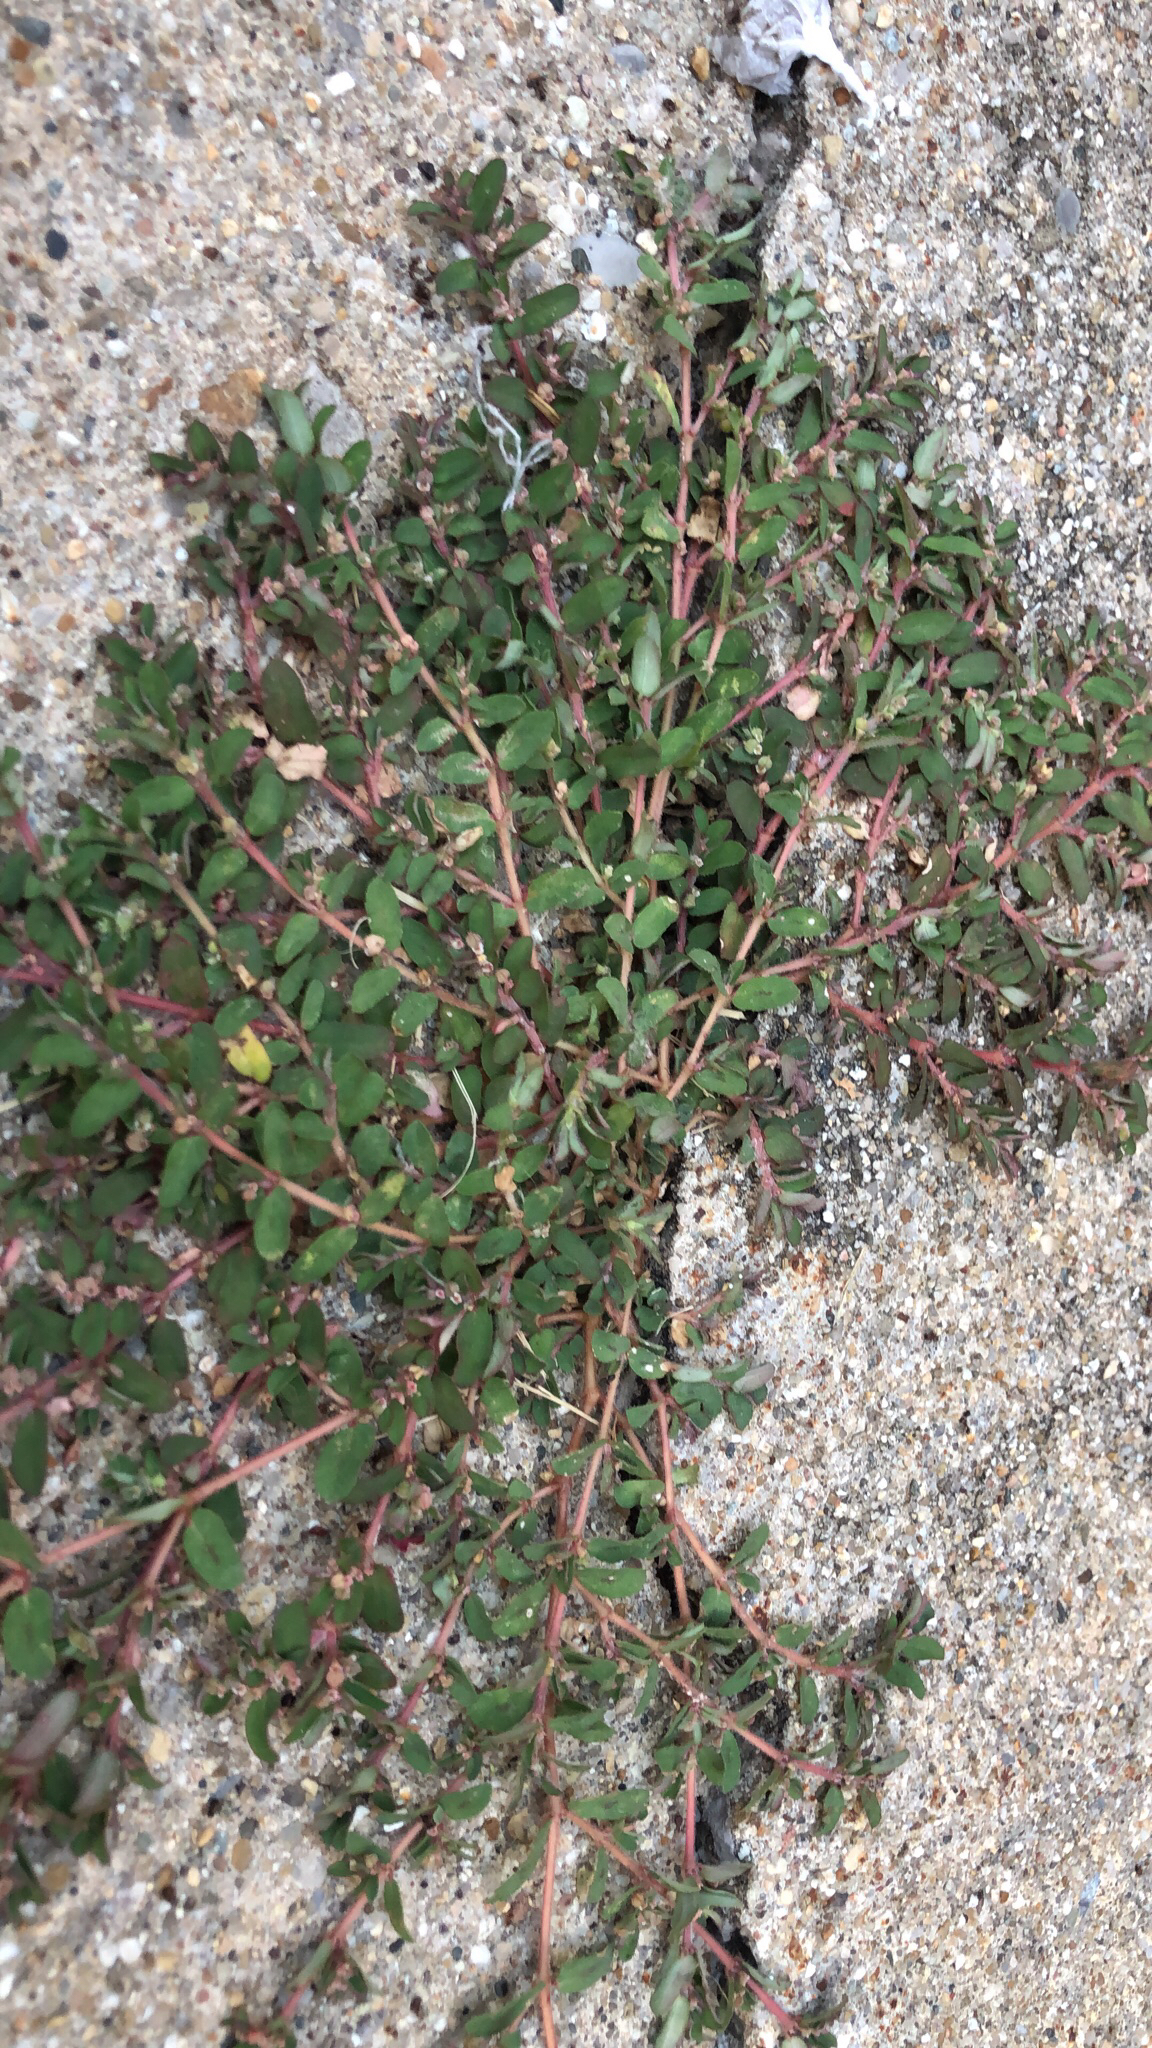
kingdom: Plantae
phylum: Tracheophyta
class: Magnoliopsida
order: Malpighiales
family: Euphorbiaceae
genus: Euphorbia
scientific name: Euphorbia maculata
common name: Spotted spurge
